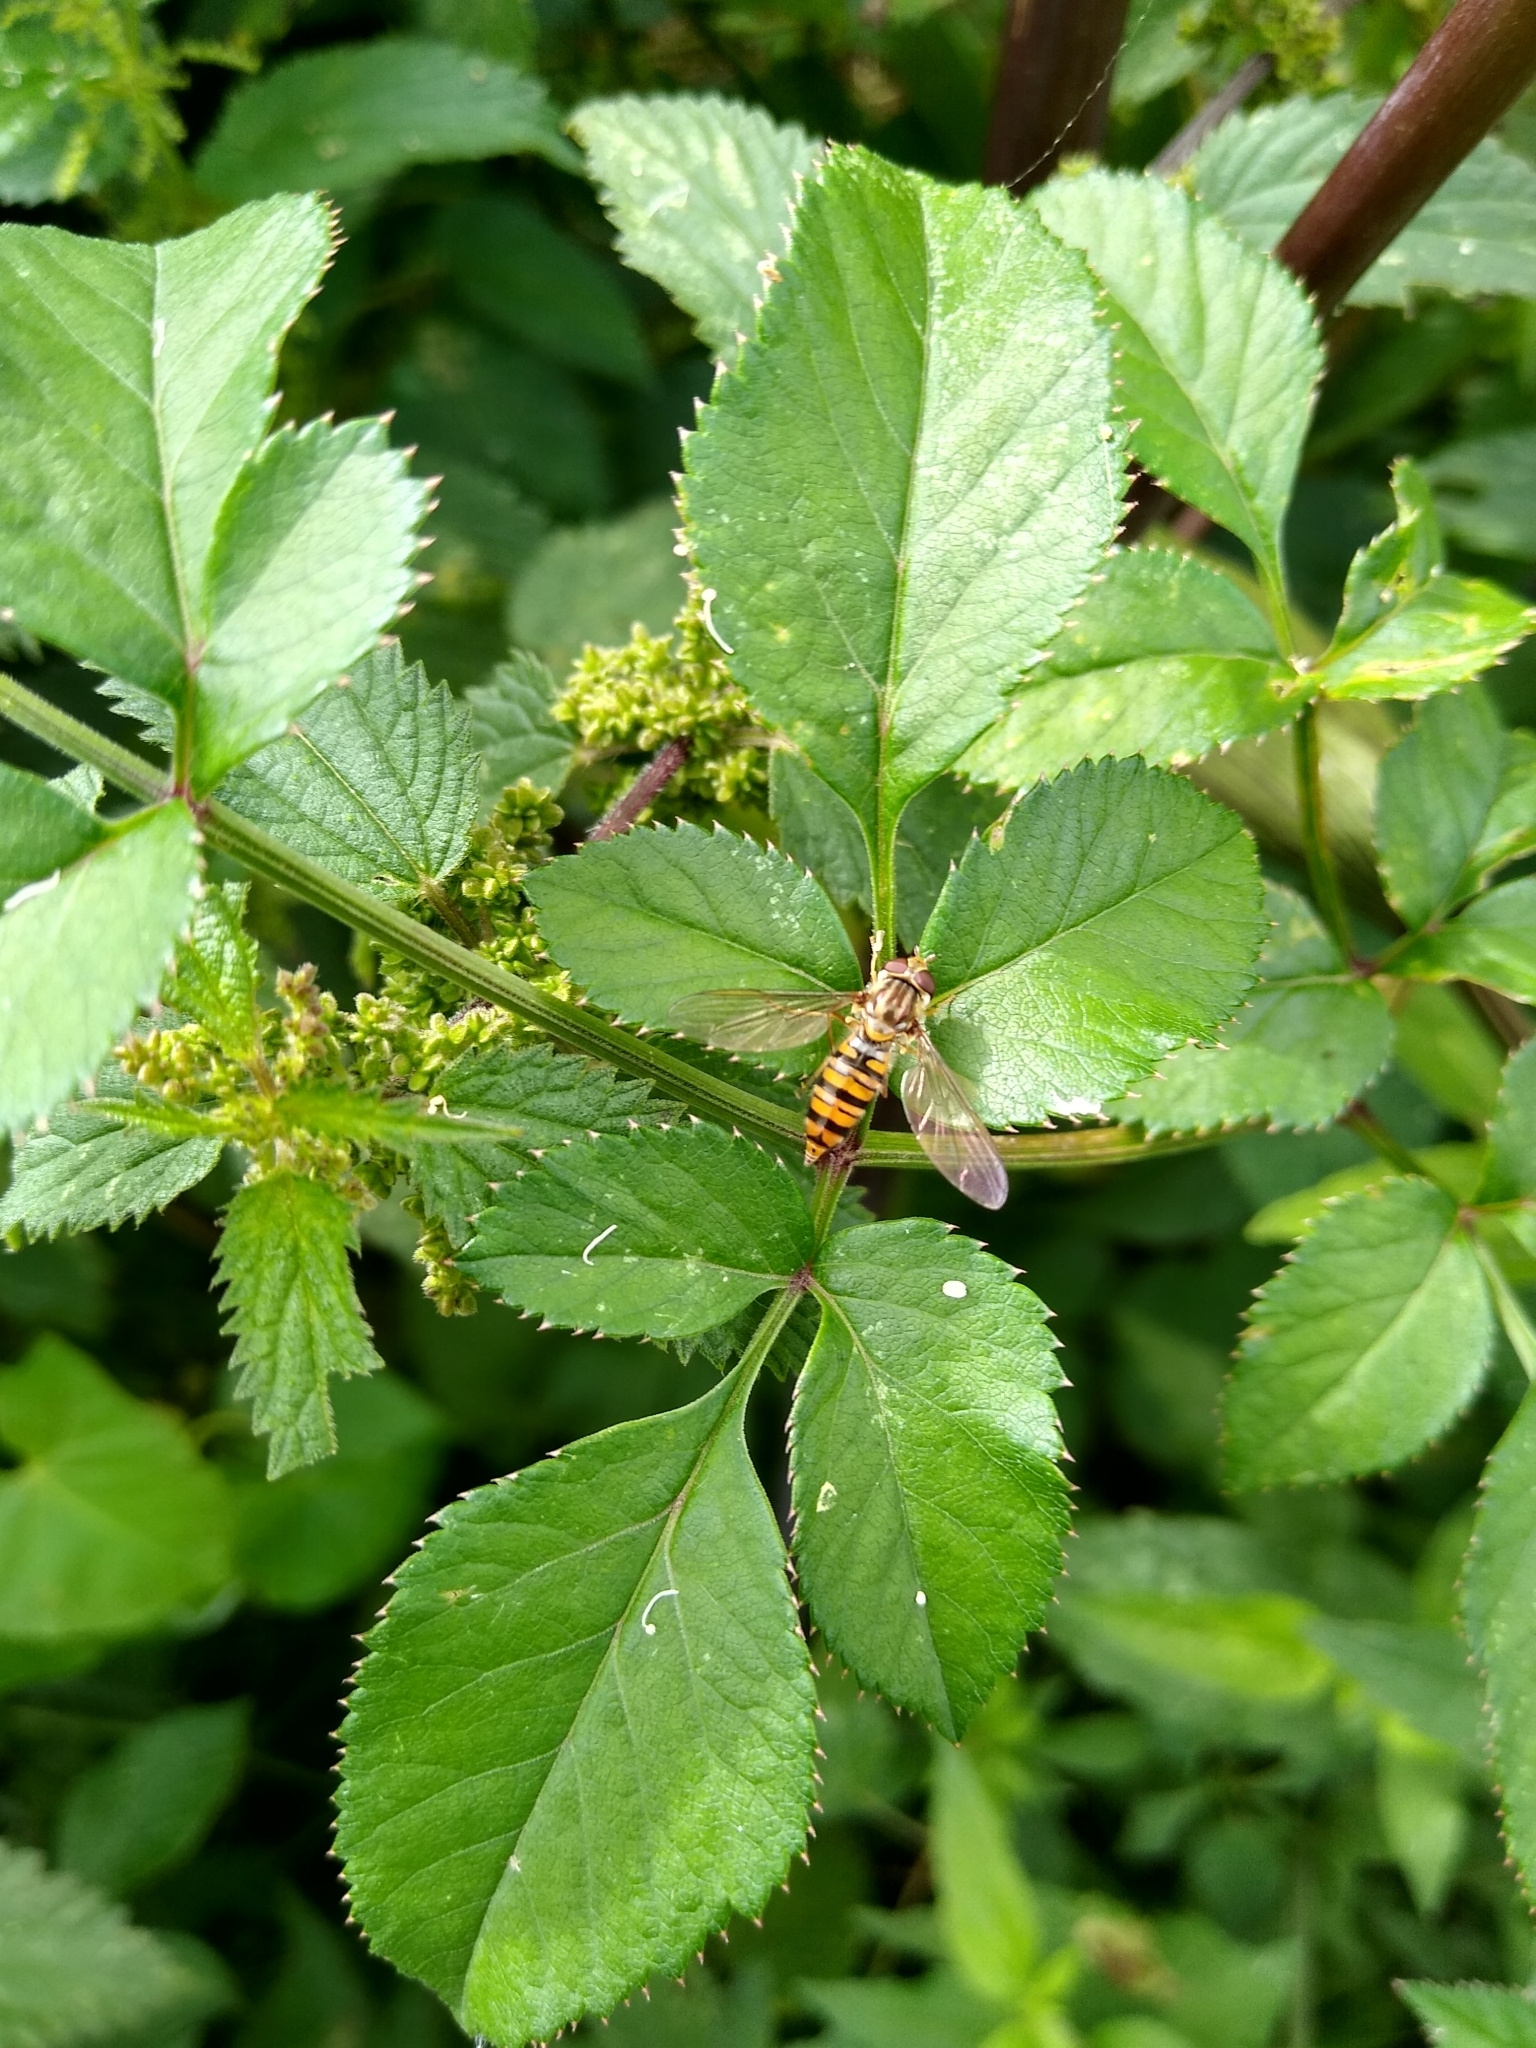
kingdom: Animalia
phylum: Arthropoda
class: Insecta
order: Diptera
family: Syrphidae
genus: Episyrphus
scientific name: Episyrphus balteatus
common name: Marmalade hoverfly
